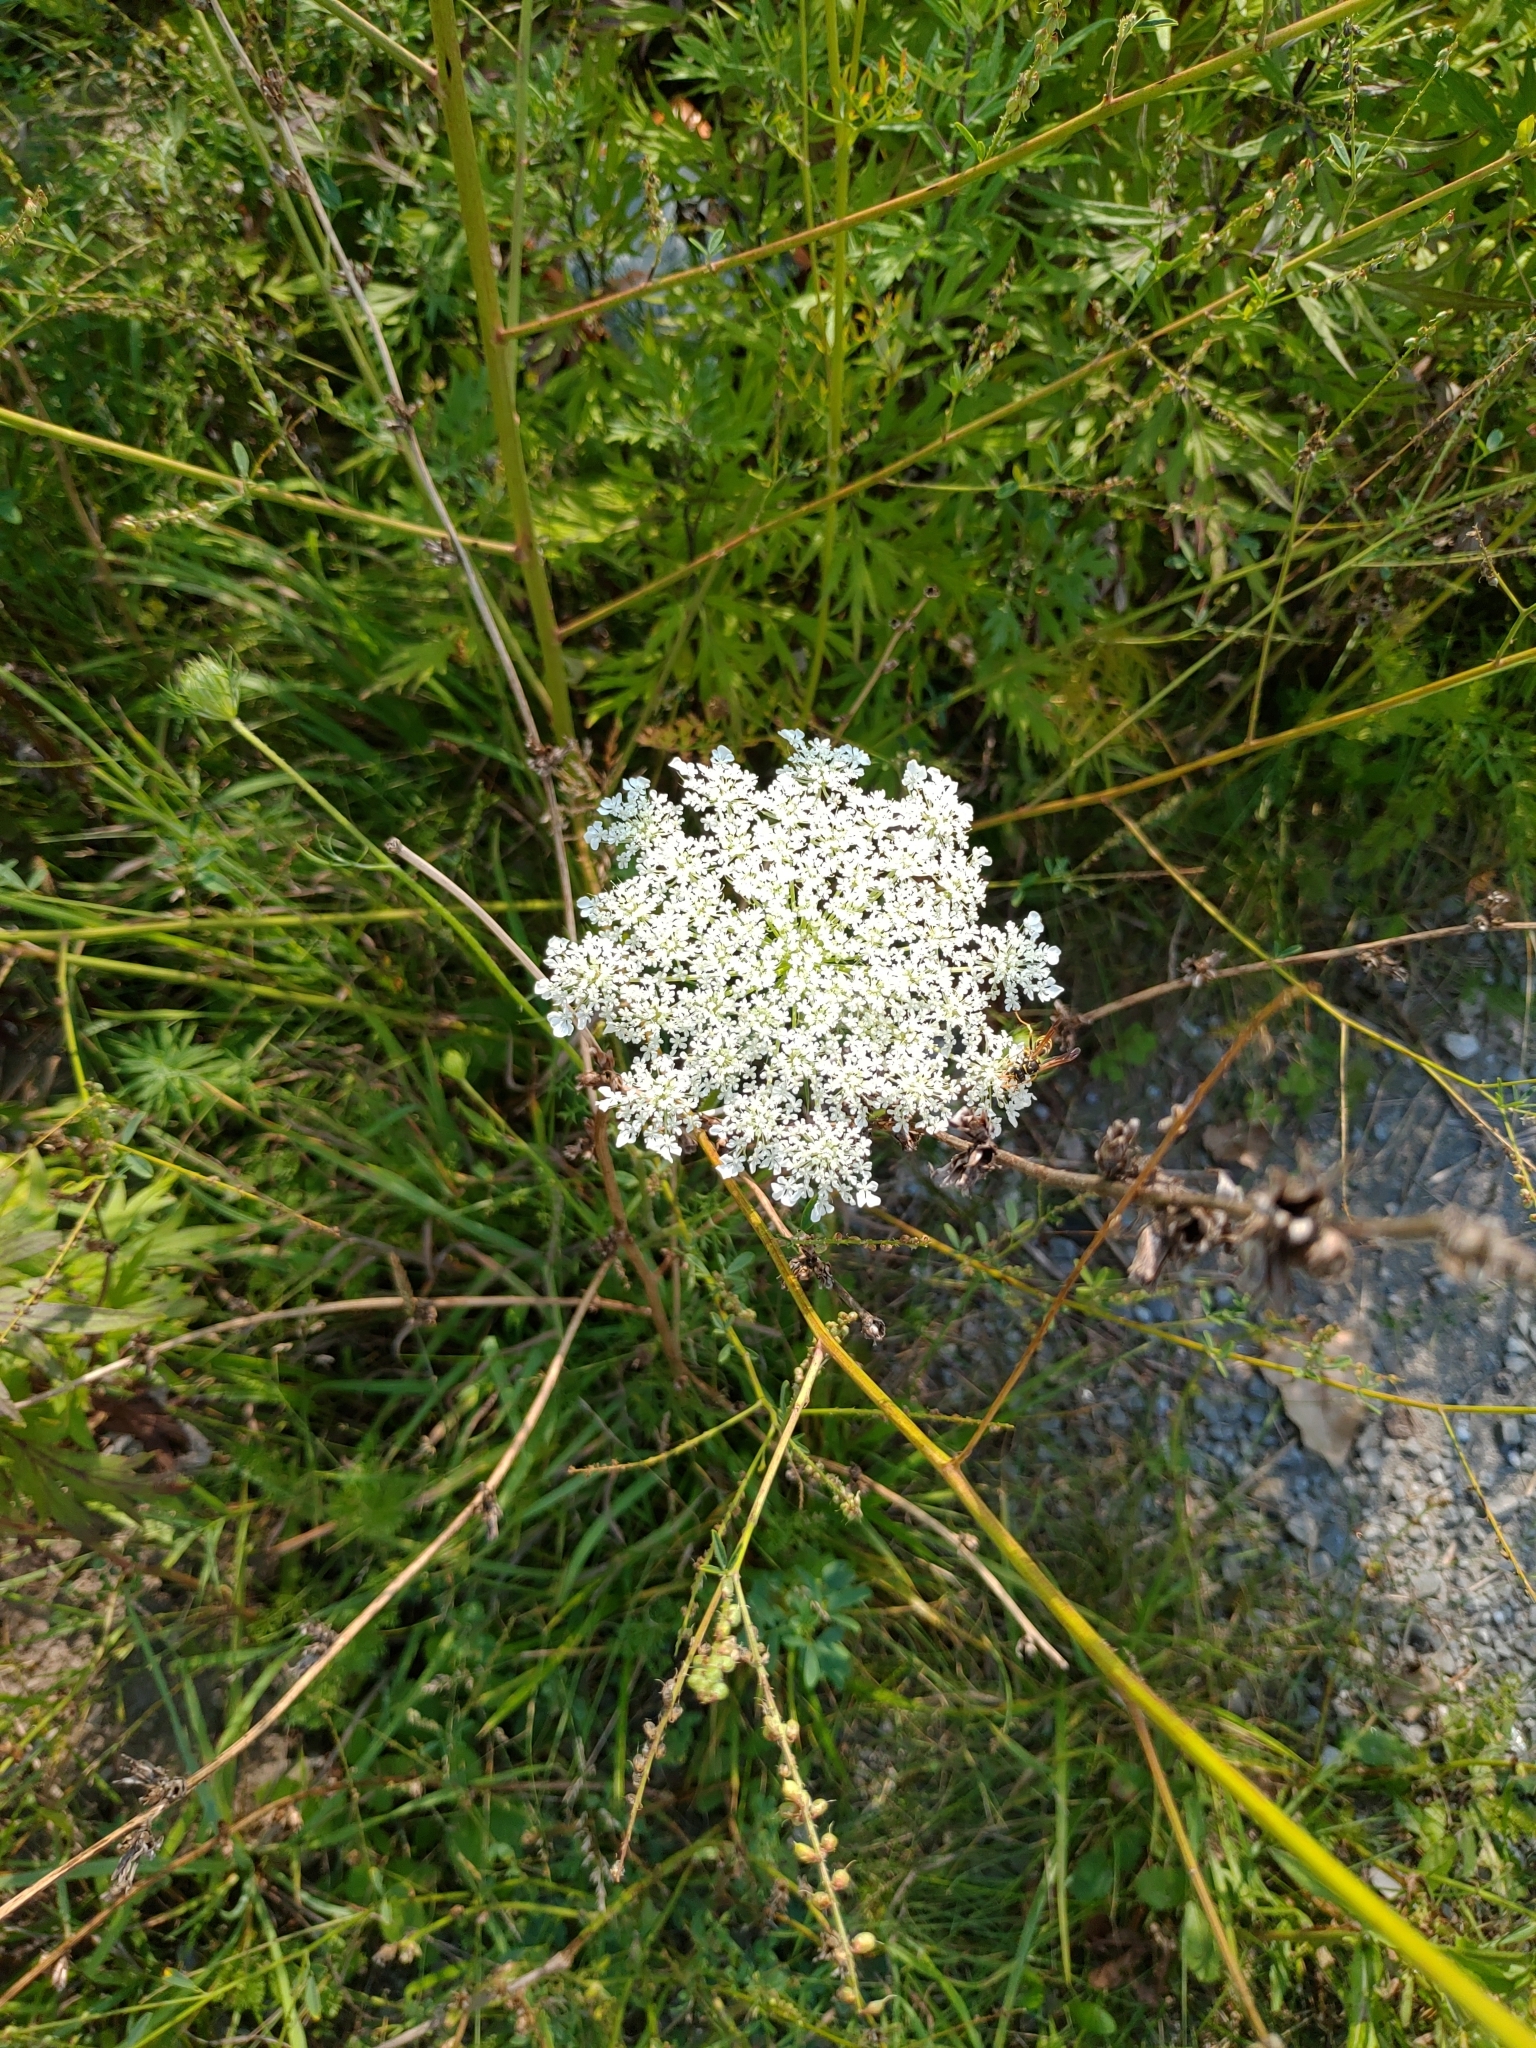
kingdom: Plantae
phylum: Tracheophyta
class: Magnoliopsida
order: Apiales
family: Apiaceae
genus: Daucus
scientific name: Daucus carota
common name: Wild carrot
